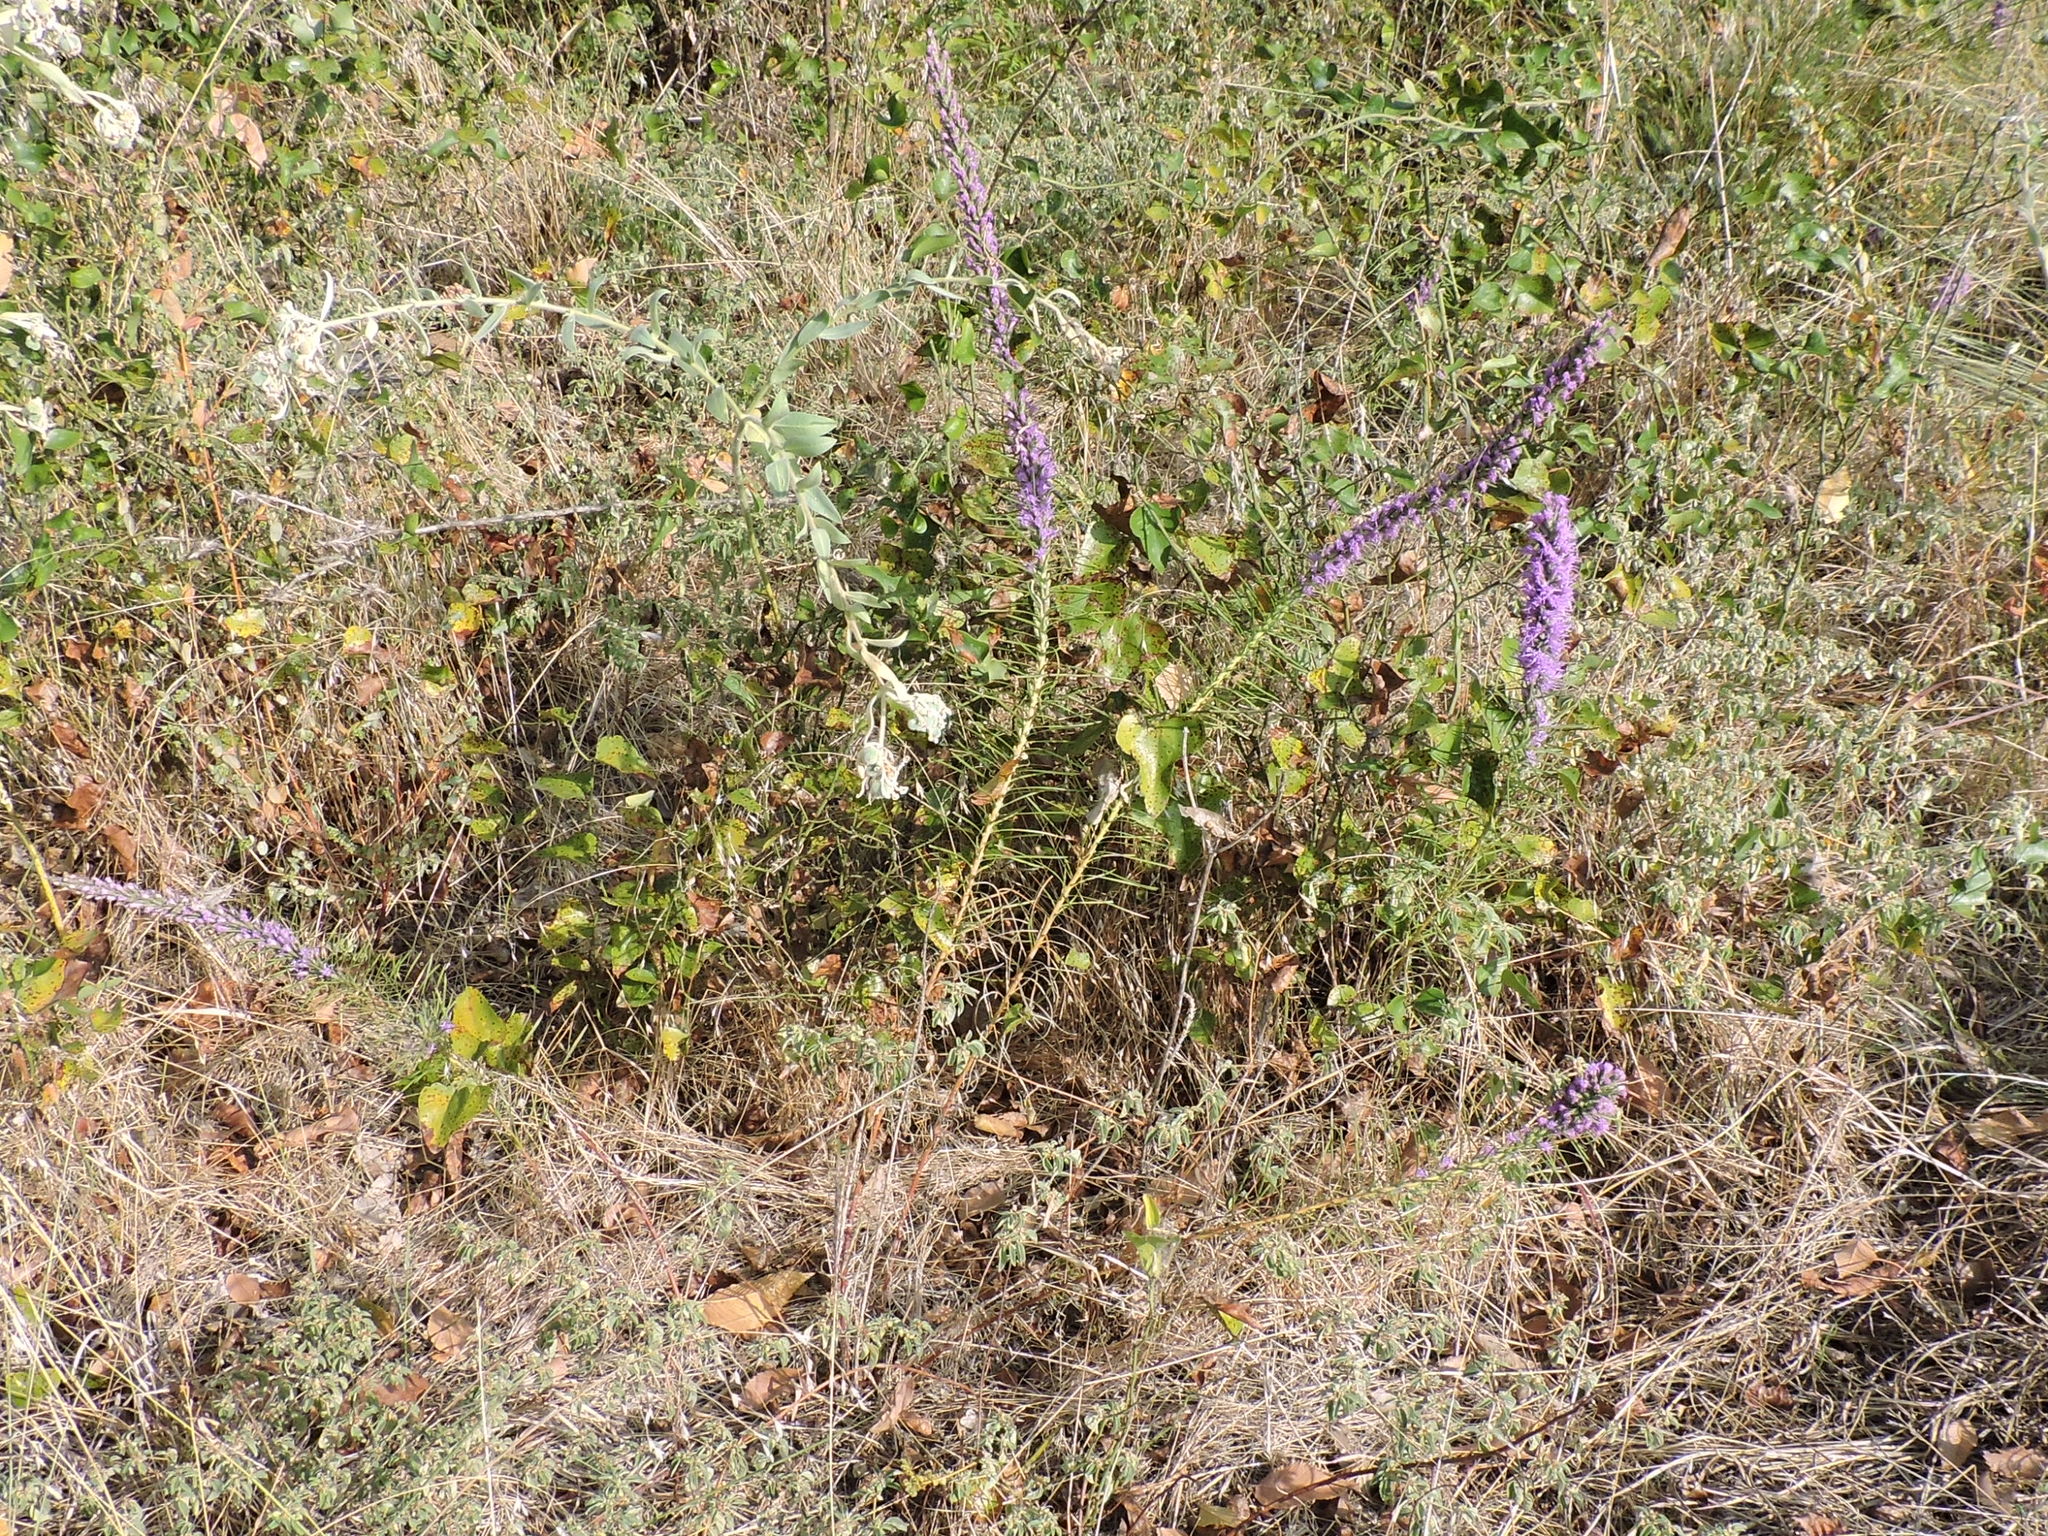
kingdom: Plantae
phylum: Tracheophyta
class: Magnoliopsida
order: Asterales
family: Asteraceae
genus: Liatris
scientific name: Liatris punctata
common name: Dotted gayfeather
